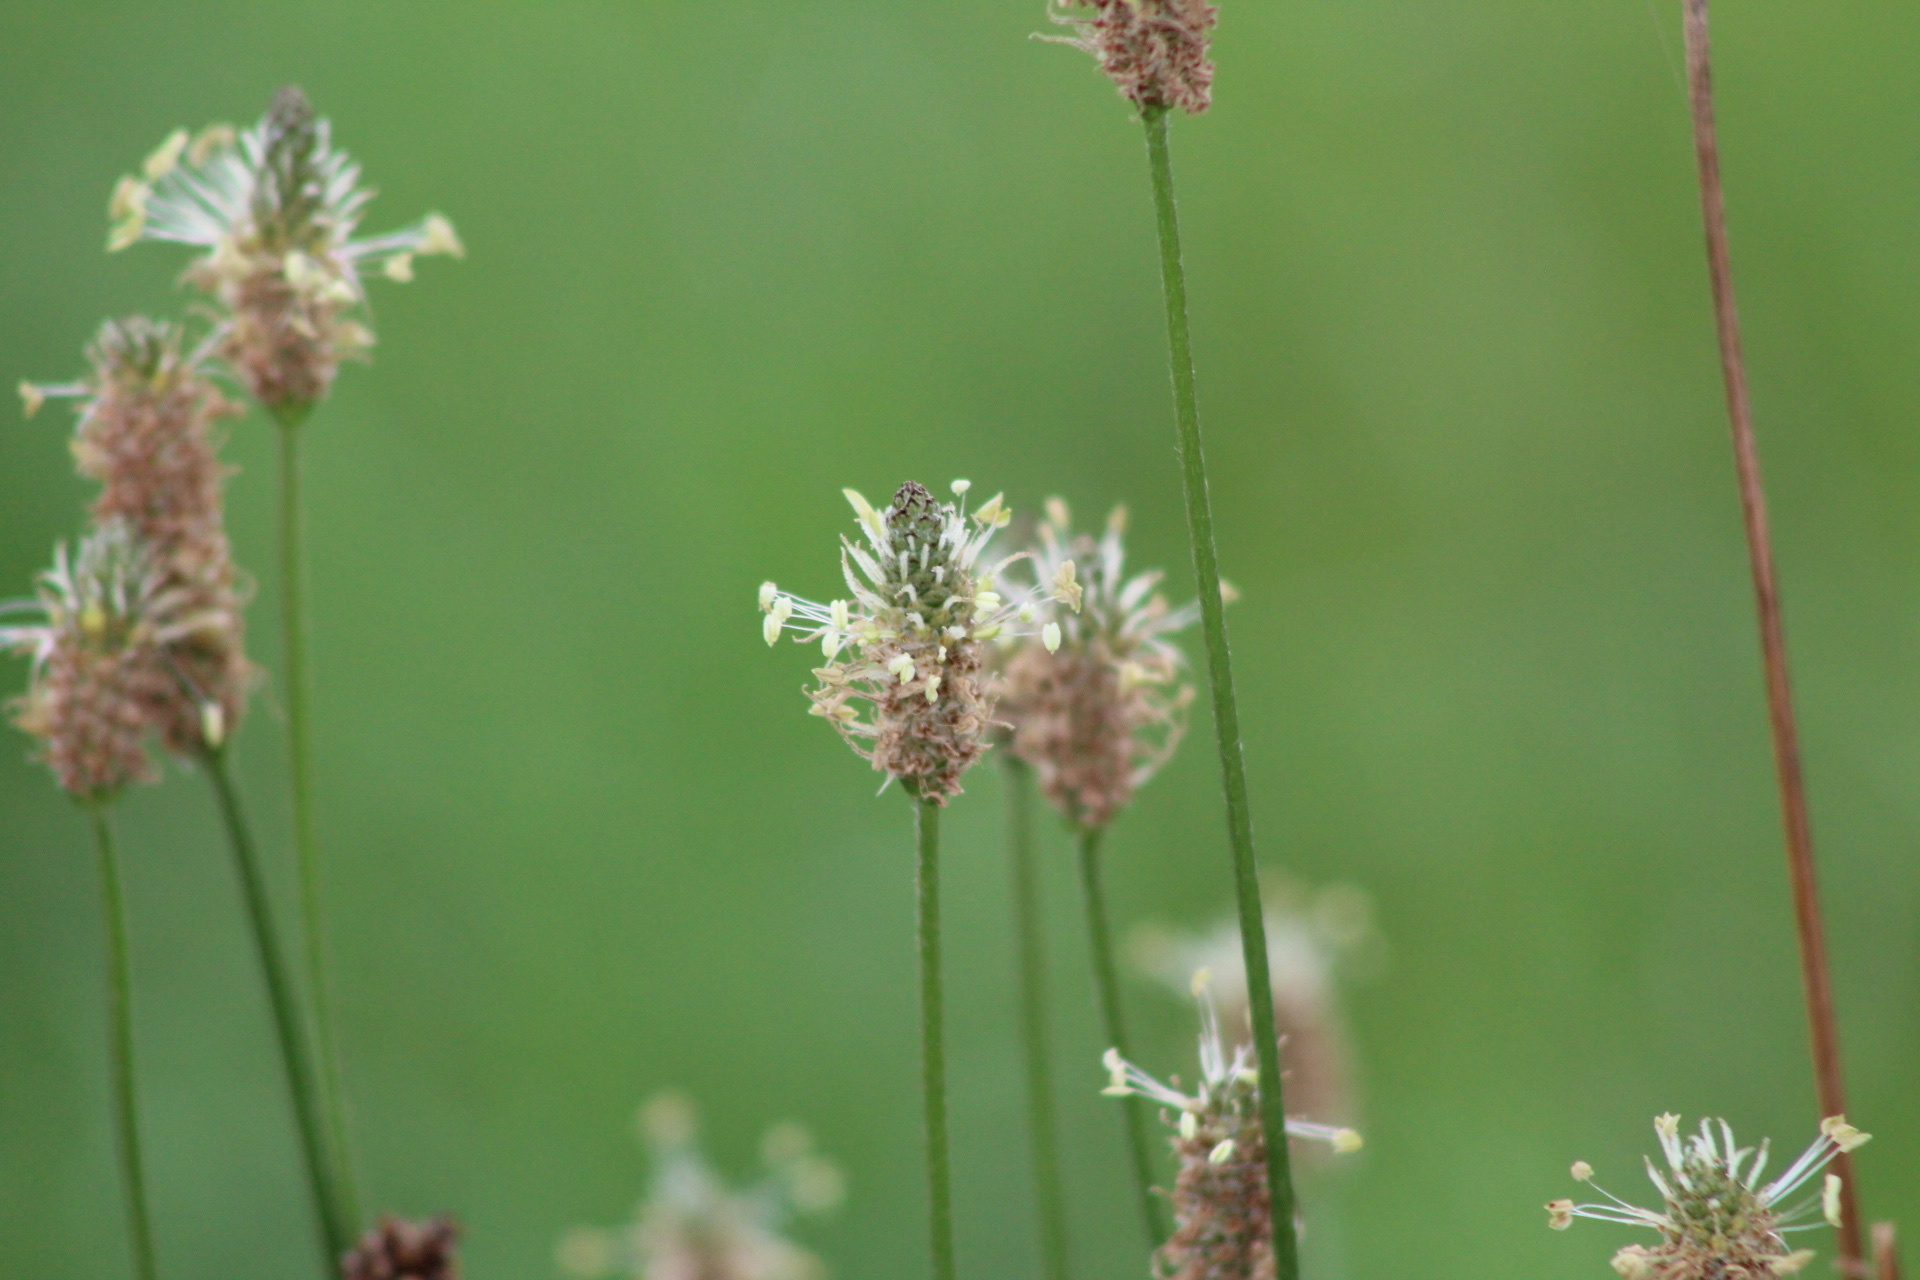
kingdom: Plantae
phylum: Tracheophyta
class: Magnoliopsida
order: Lamiales
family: Plantaginaceae
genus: Plantago
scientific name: Plantago lanceolata
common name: Ribwort plantain
